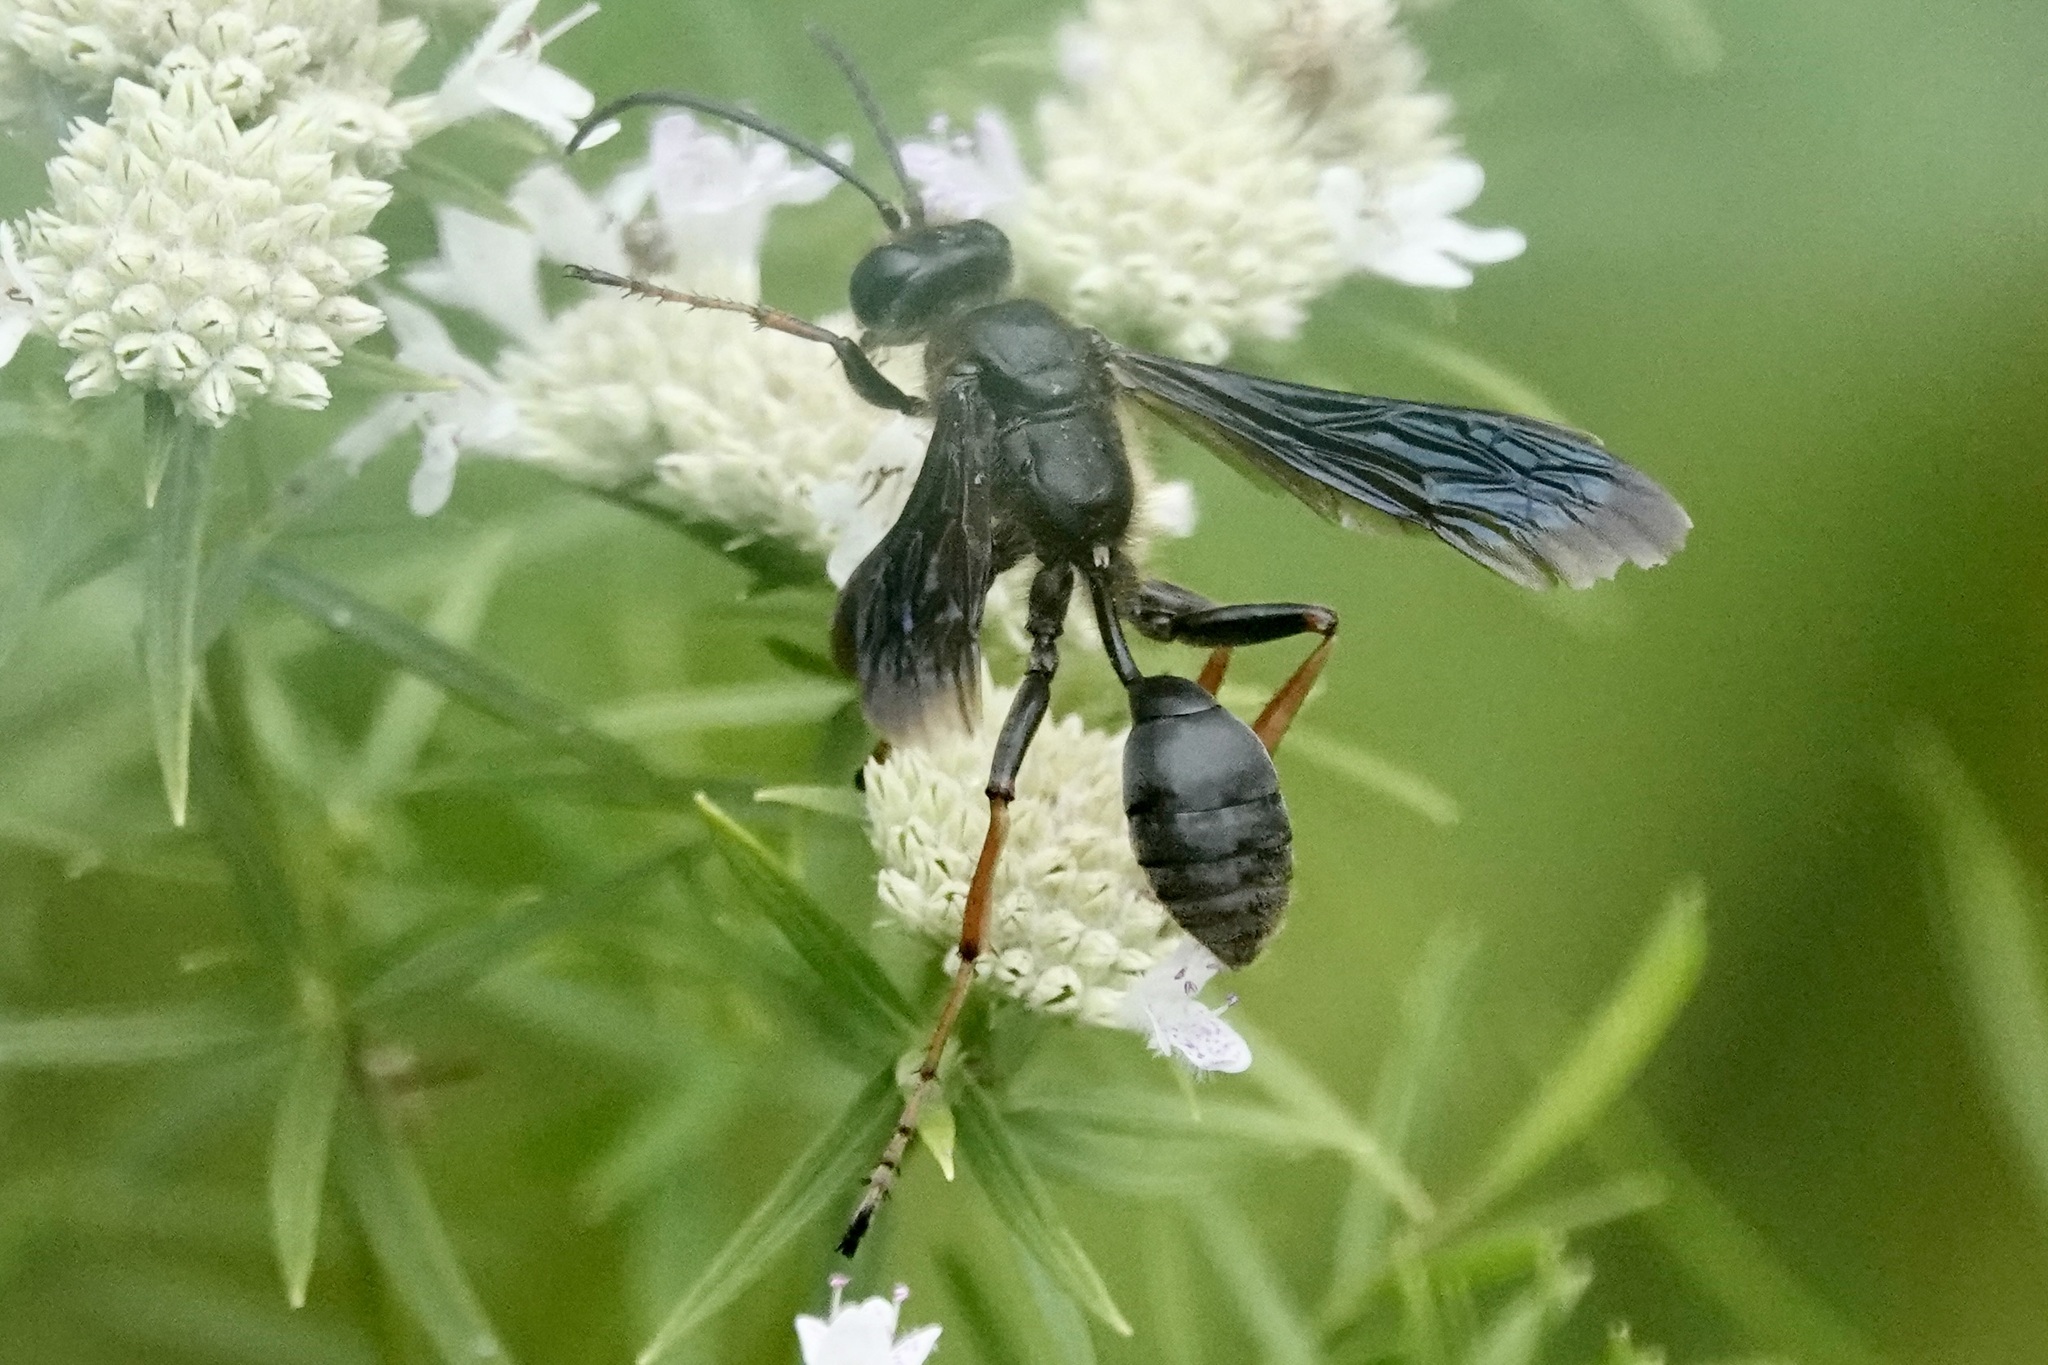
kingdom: Animalia
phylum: Arthropoda
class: Insecta
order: Hymenoptera
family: Sphecidae
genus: Isodontia
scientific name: Isodontia auripes
